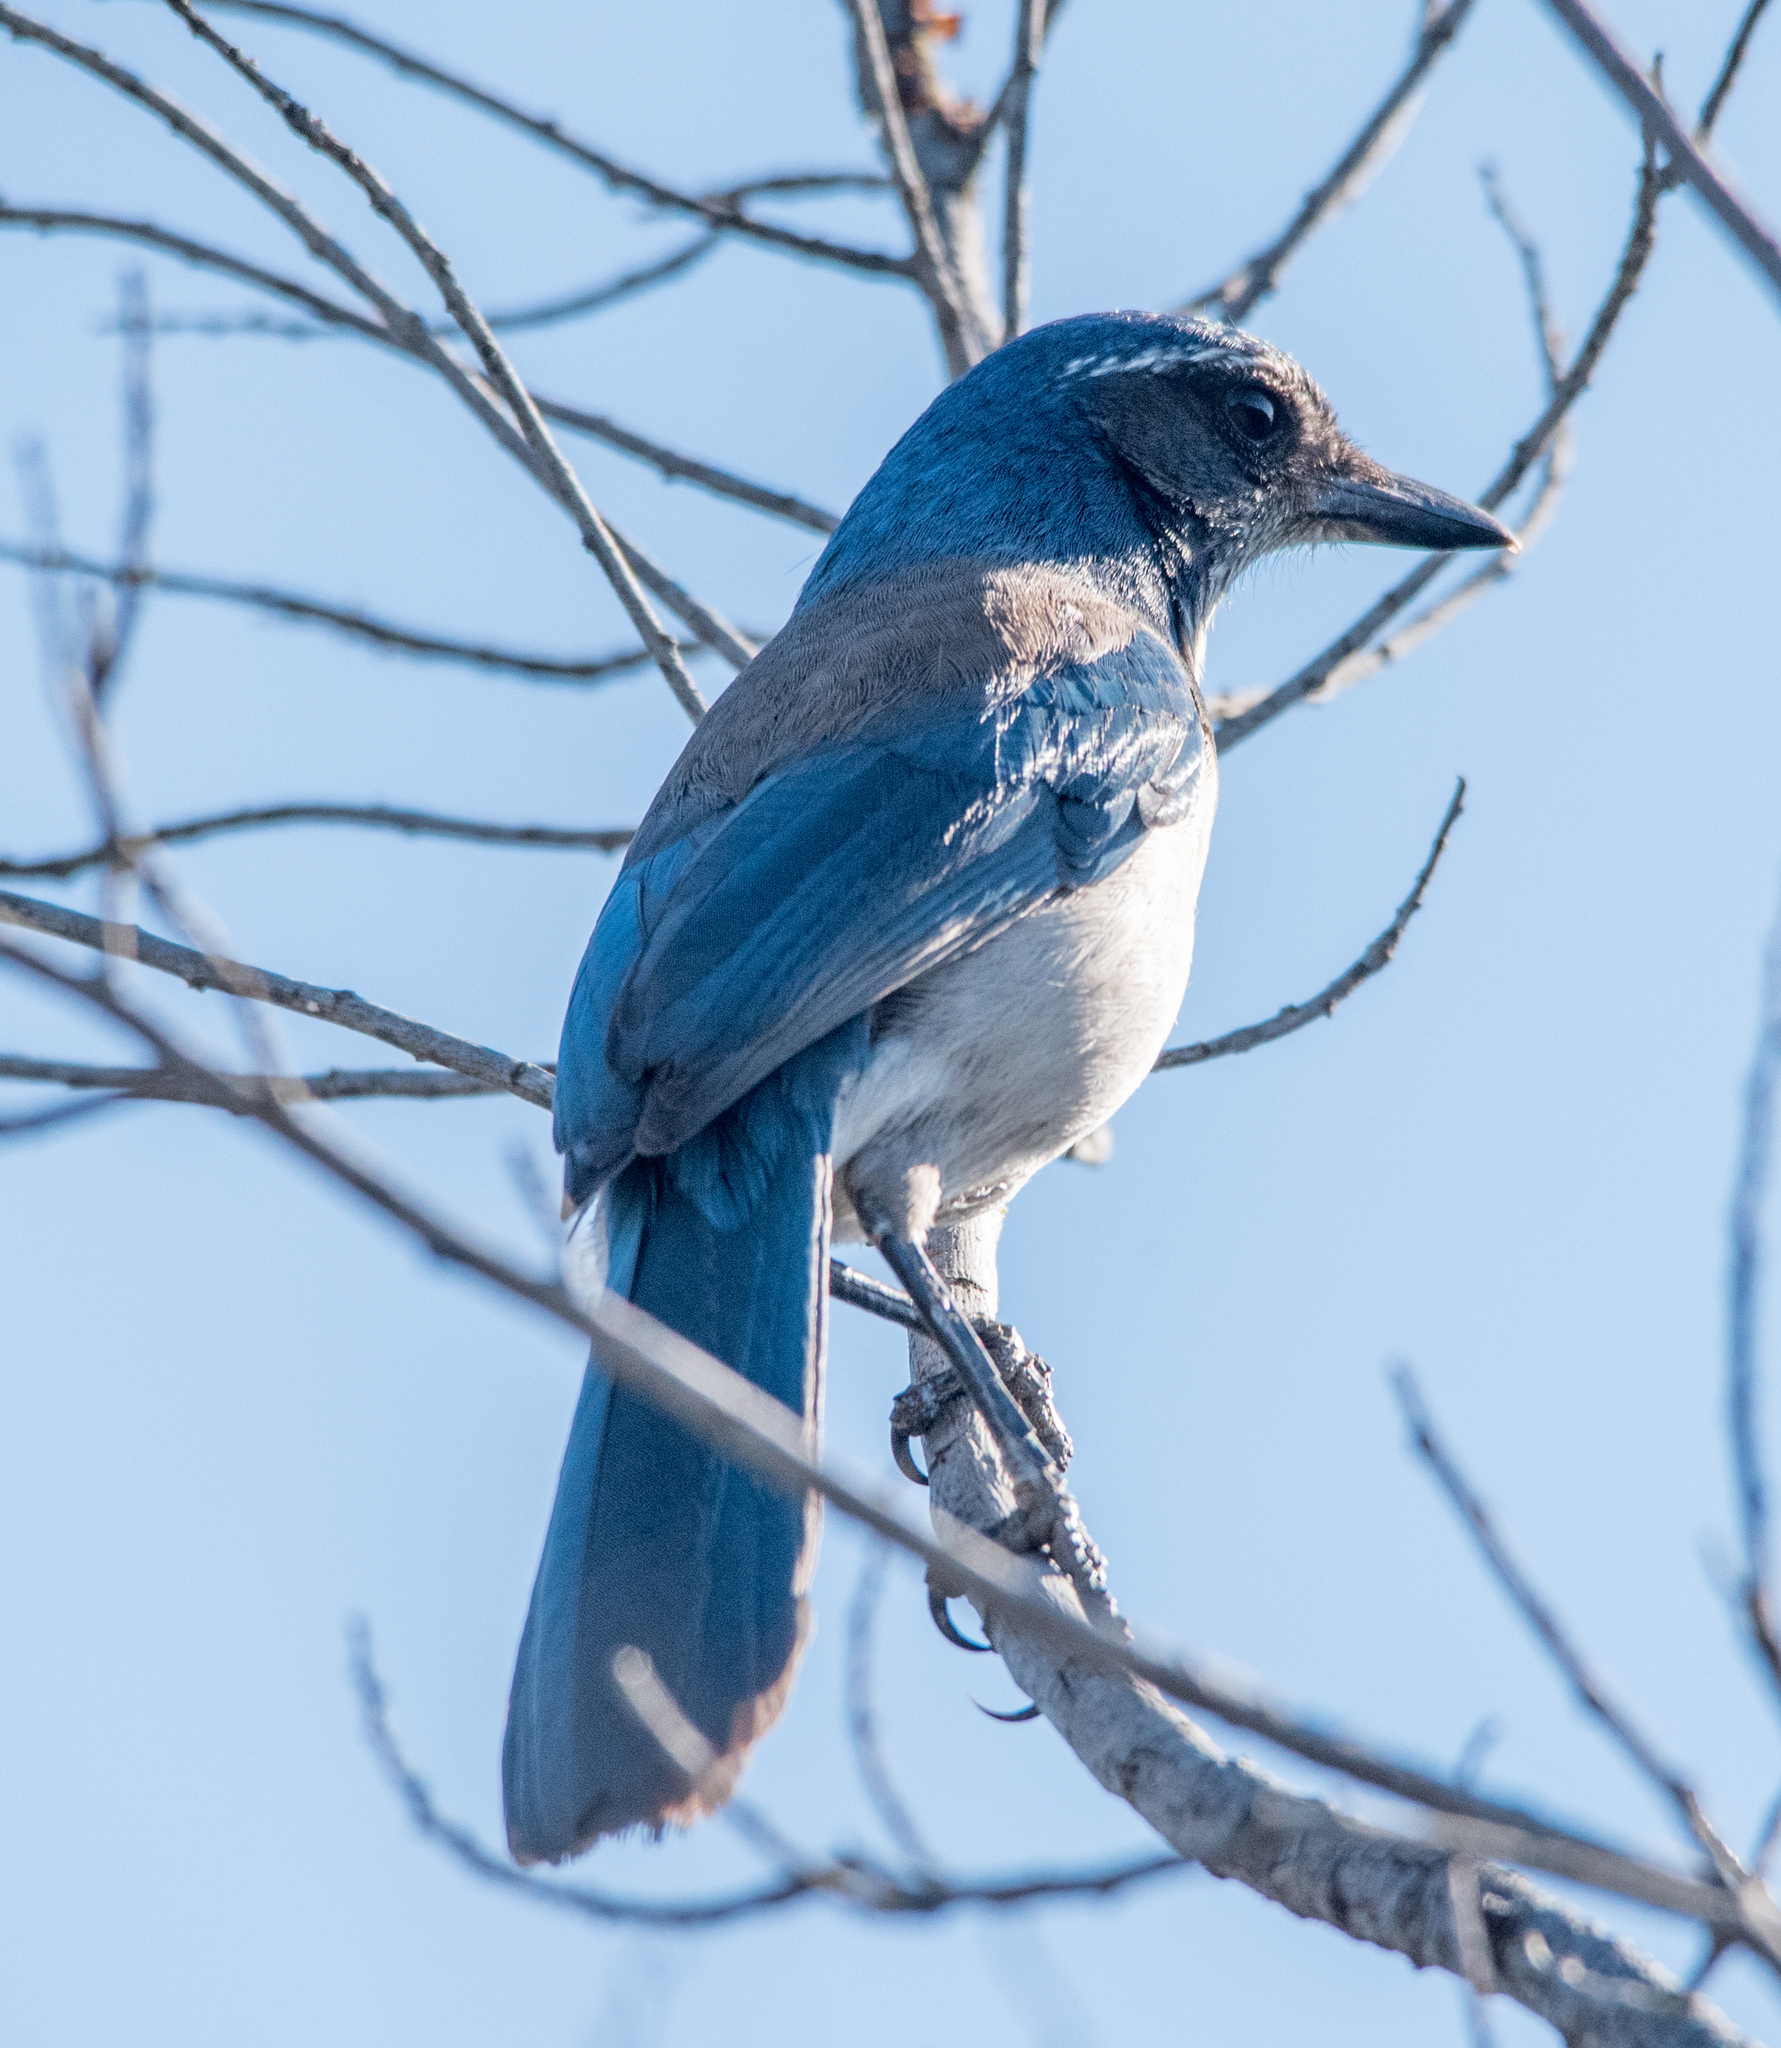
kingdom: Animalia
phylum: Chordata
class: Aves
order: Passeriformes
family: Corvidae
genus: Aphelocoma
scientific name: Aphelocoma californica
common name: California scrub-jay
